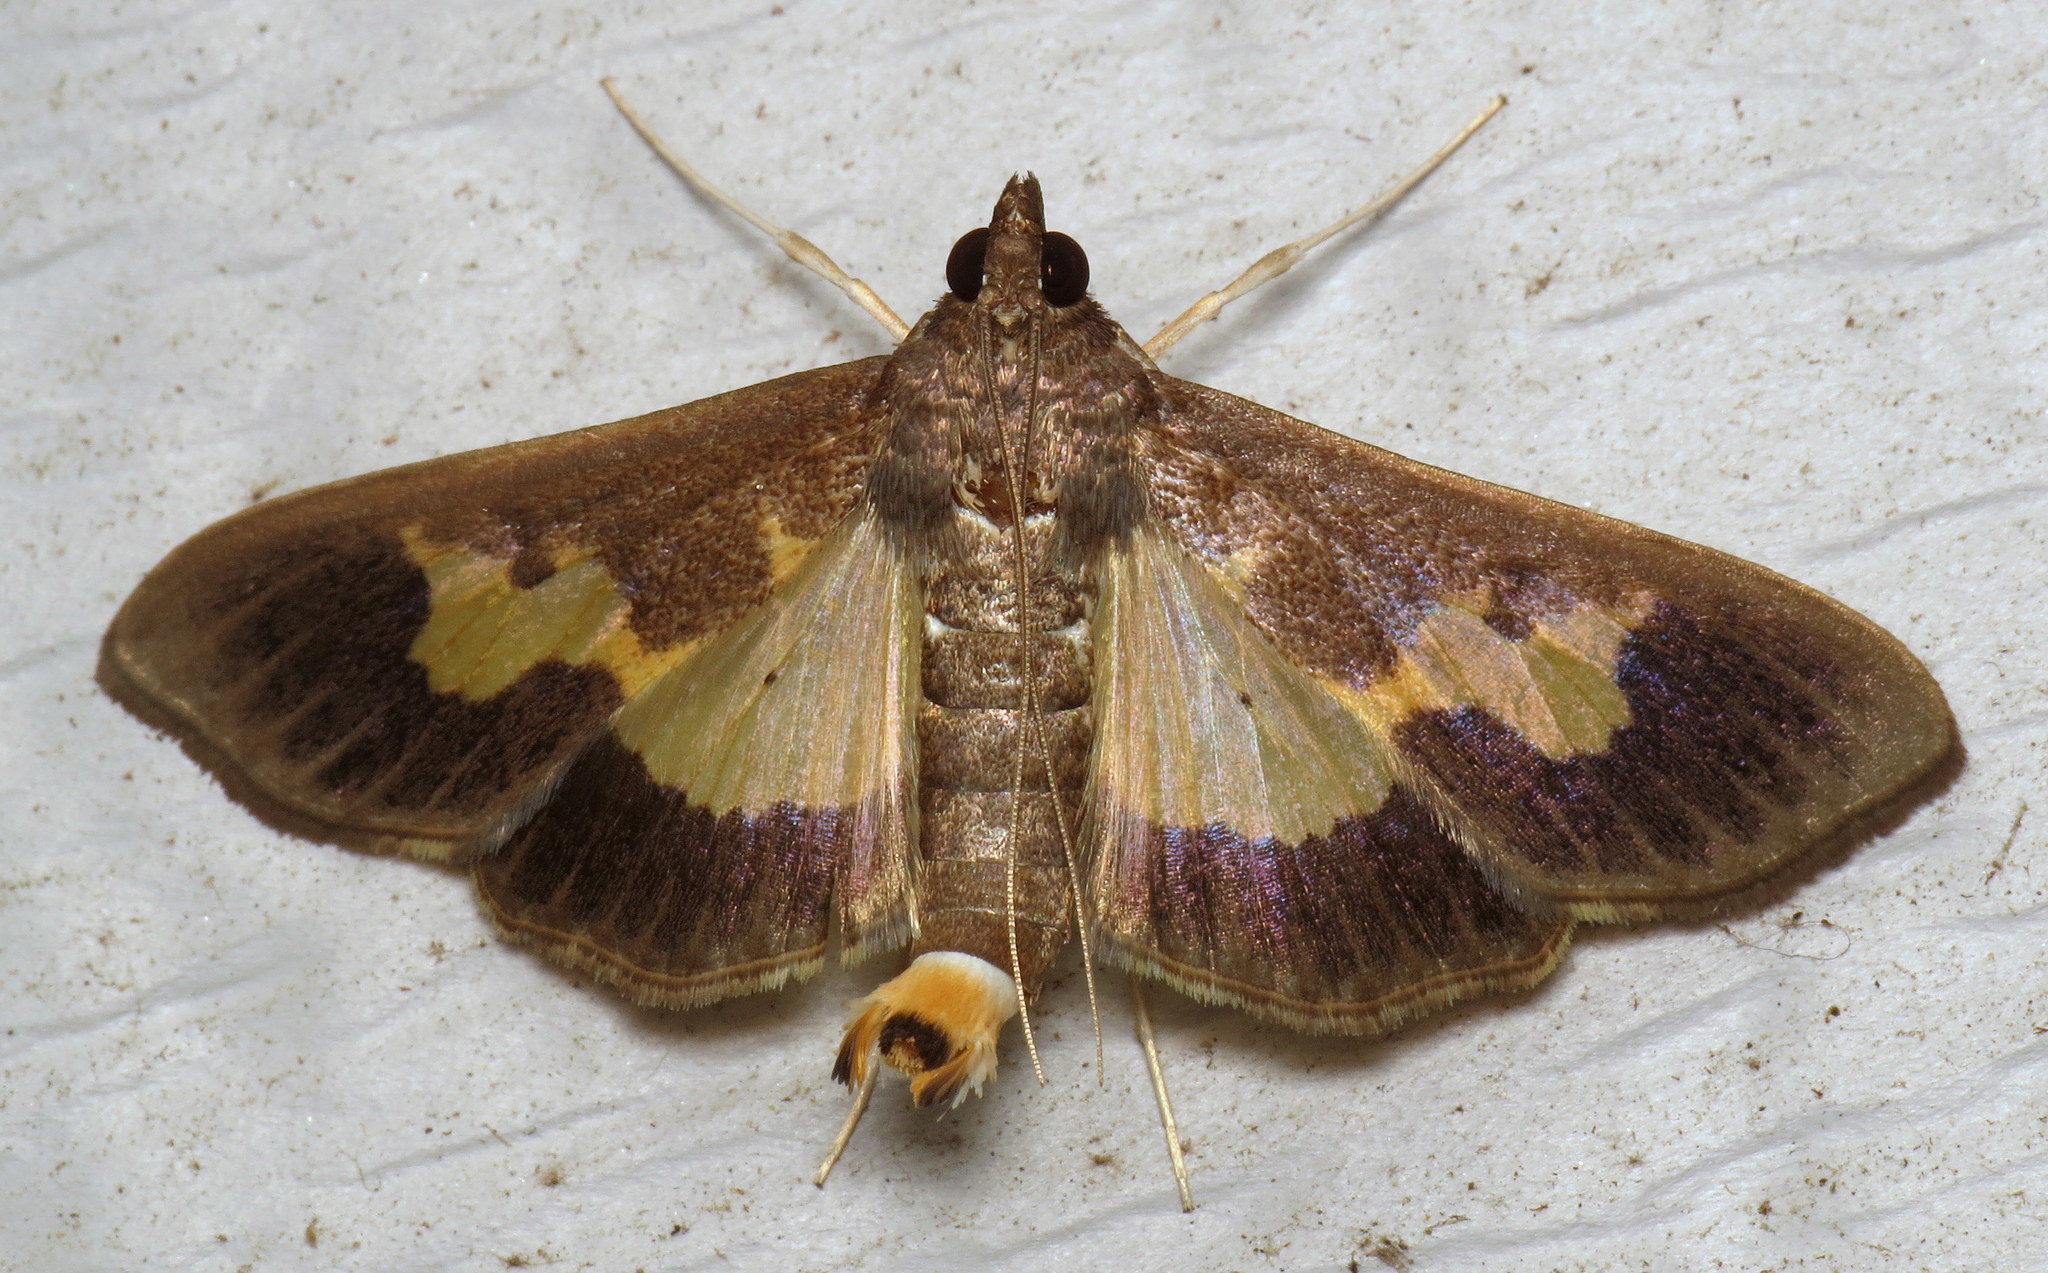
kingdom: Animalia
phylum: Arthropoda
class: Insecta
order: Lepidoptera
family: Crambidae
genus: Cryptographis
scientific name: Cryptographis nitidalis
